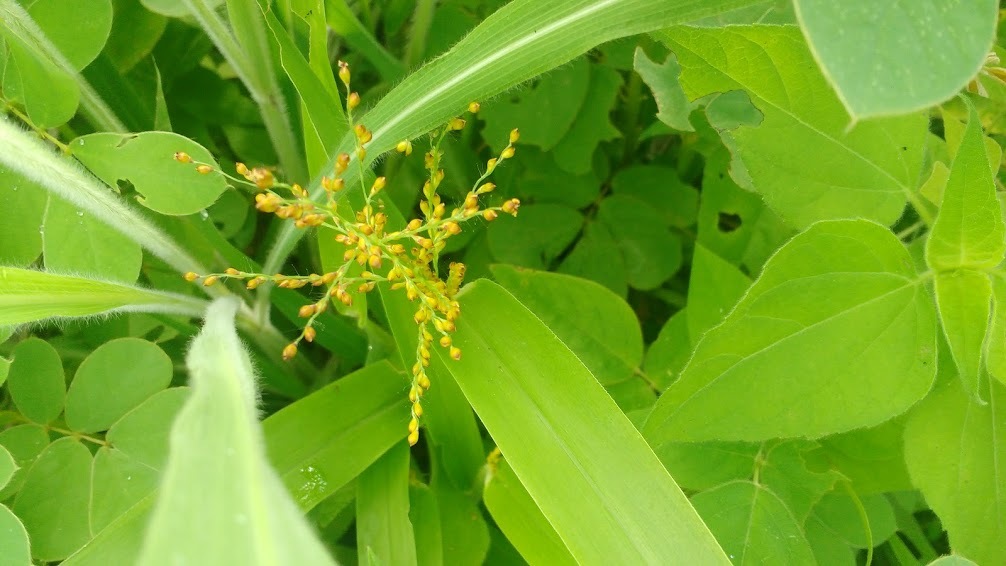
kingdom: Plantae
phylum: Tracheophyta
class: Liliopsida
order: Poales
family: Poaceae
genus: Urochloa
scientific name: Urochloa fusca
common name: Browntop signal grass
